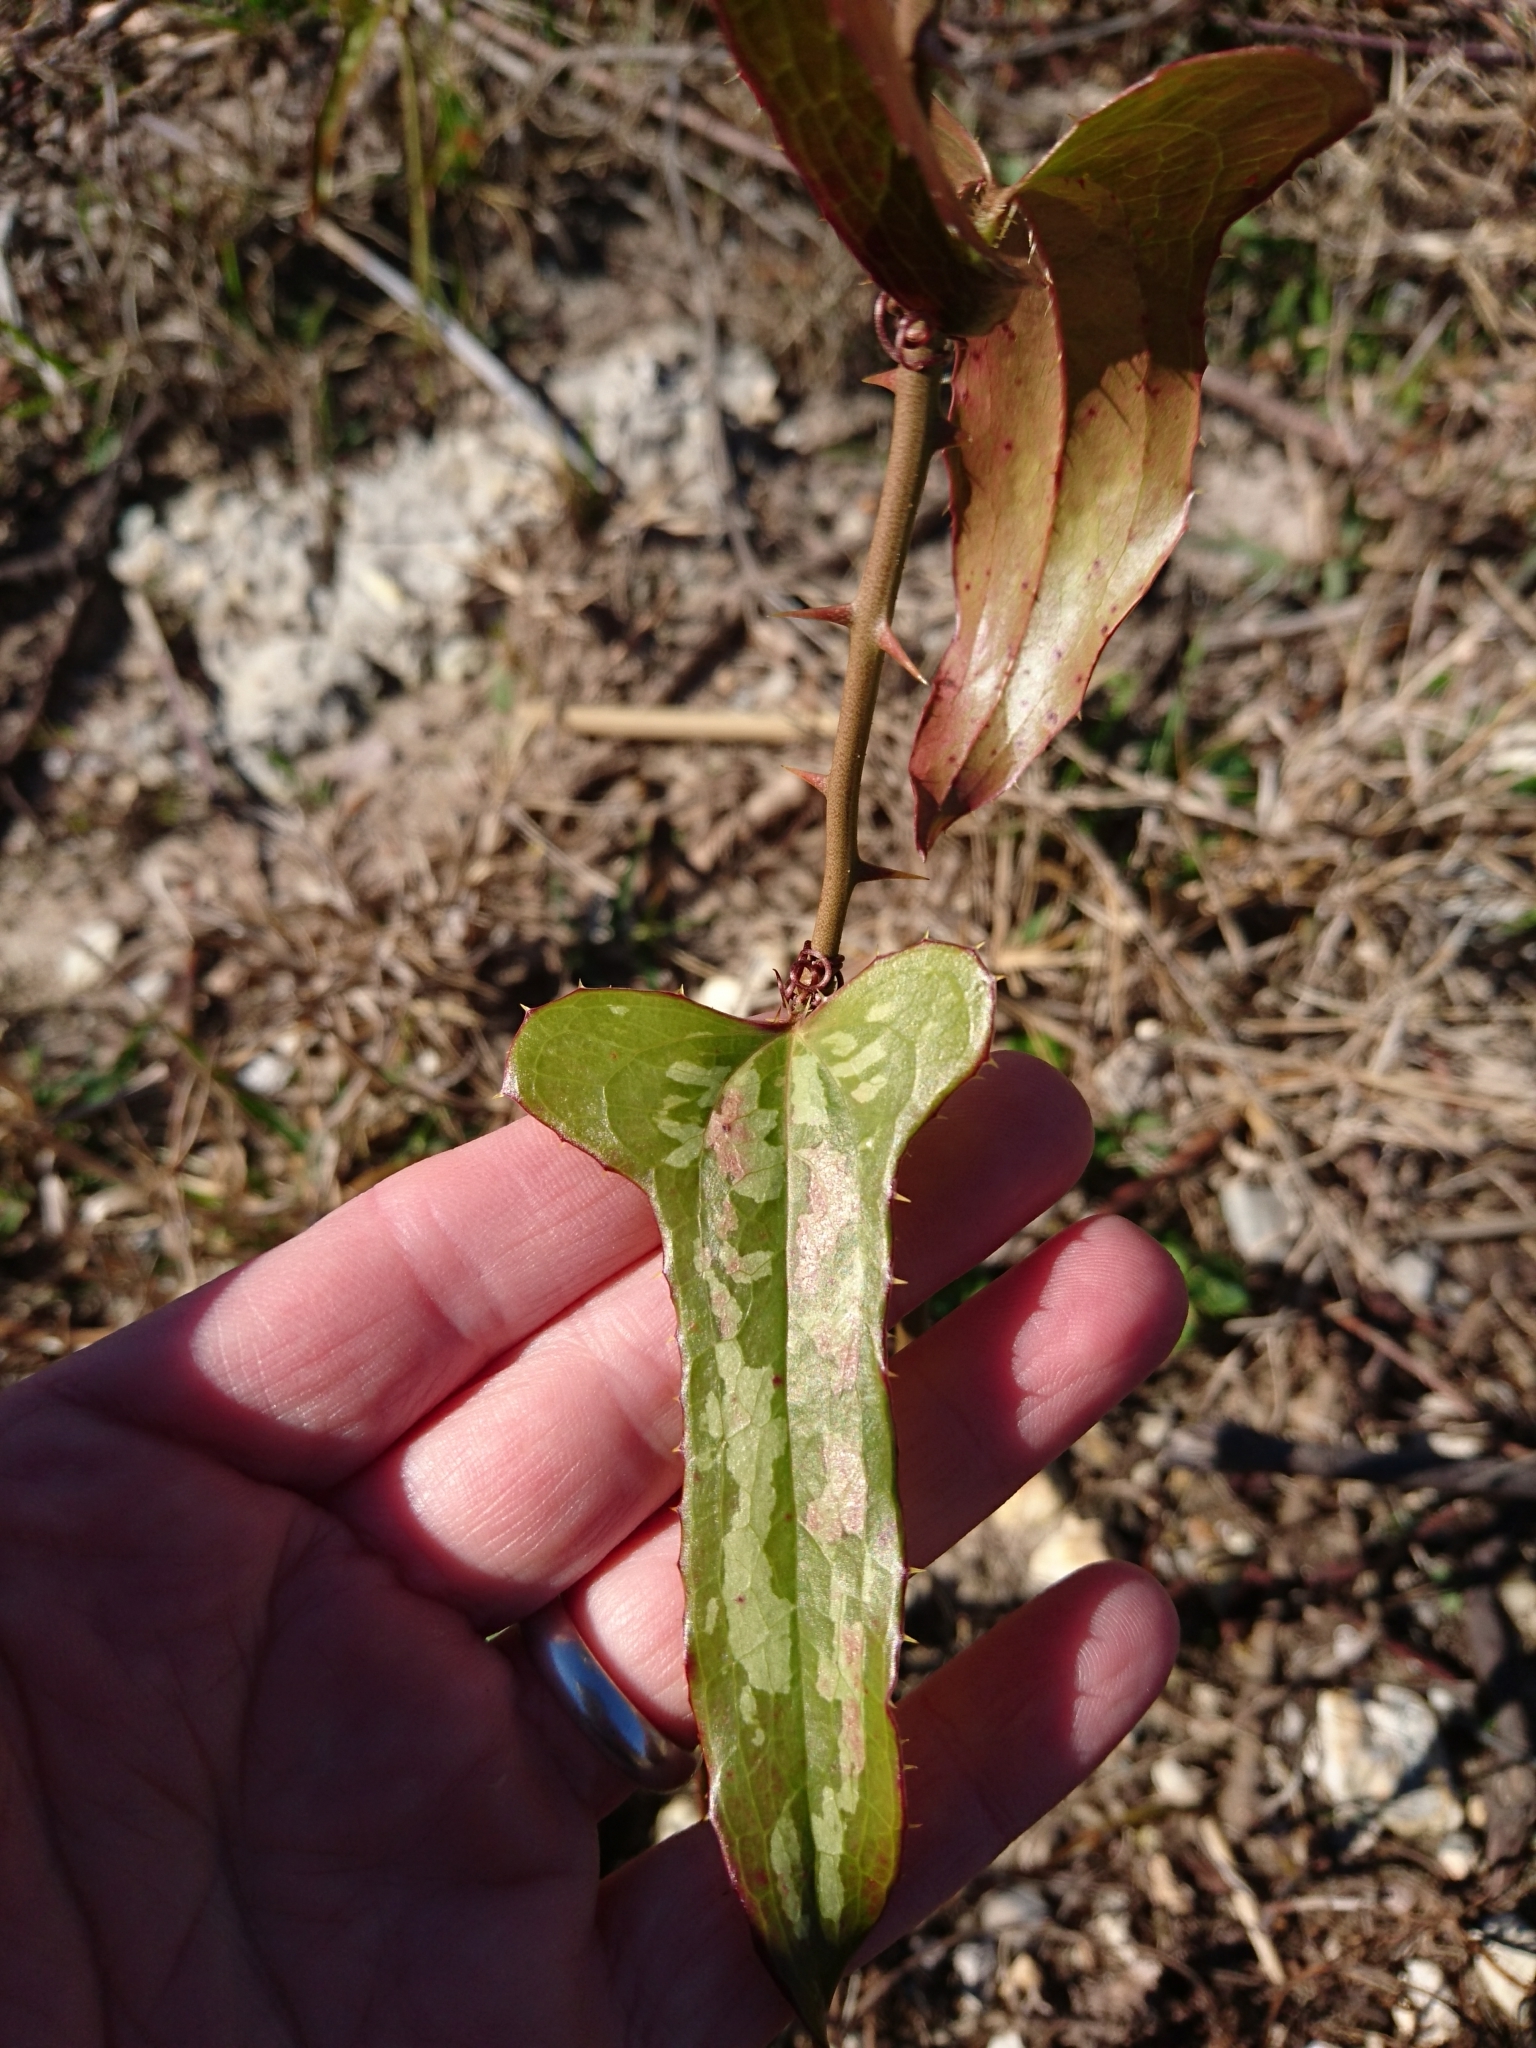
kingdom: Plantae
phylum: Tracheophyta
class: Liliopsida
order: Liliales
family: Smilacaceae
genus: Smilax
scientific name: Smilax bona-nox
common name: Catbrier
